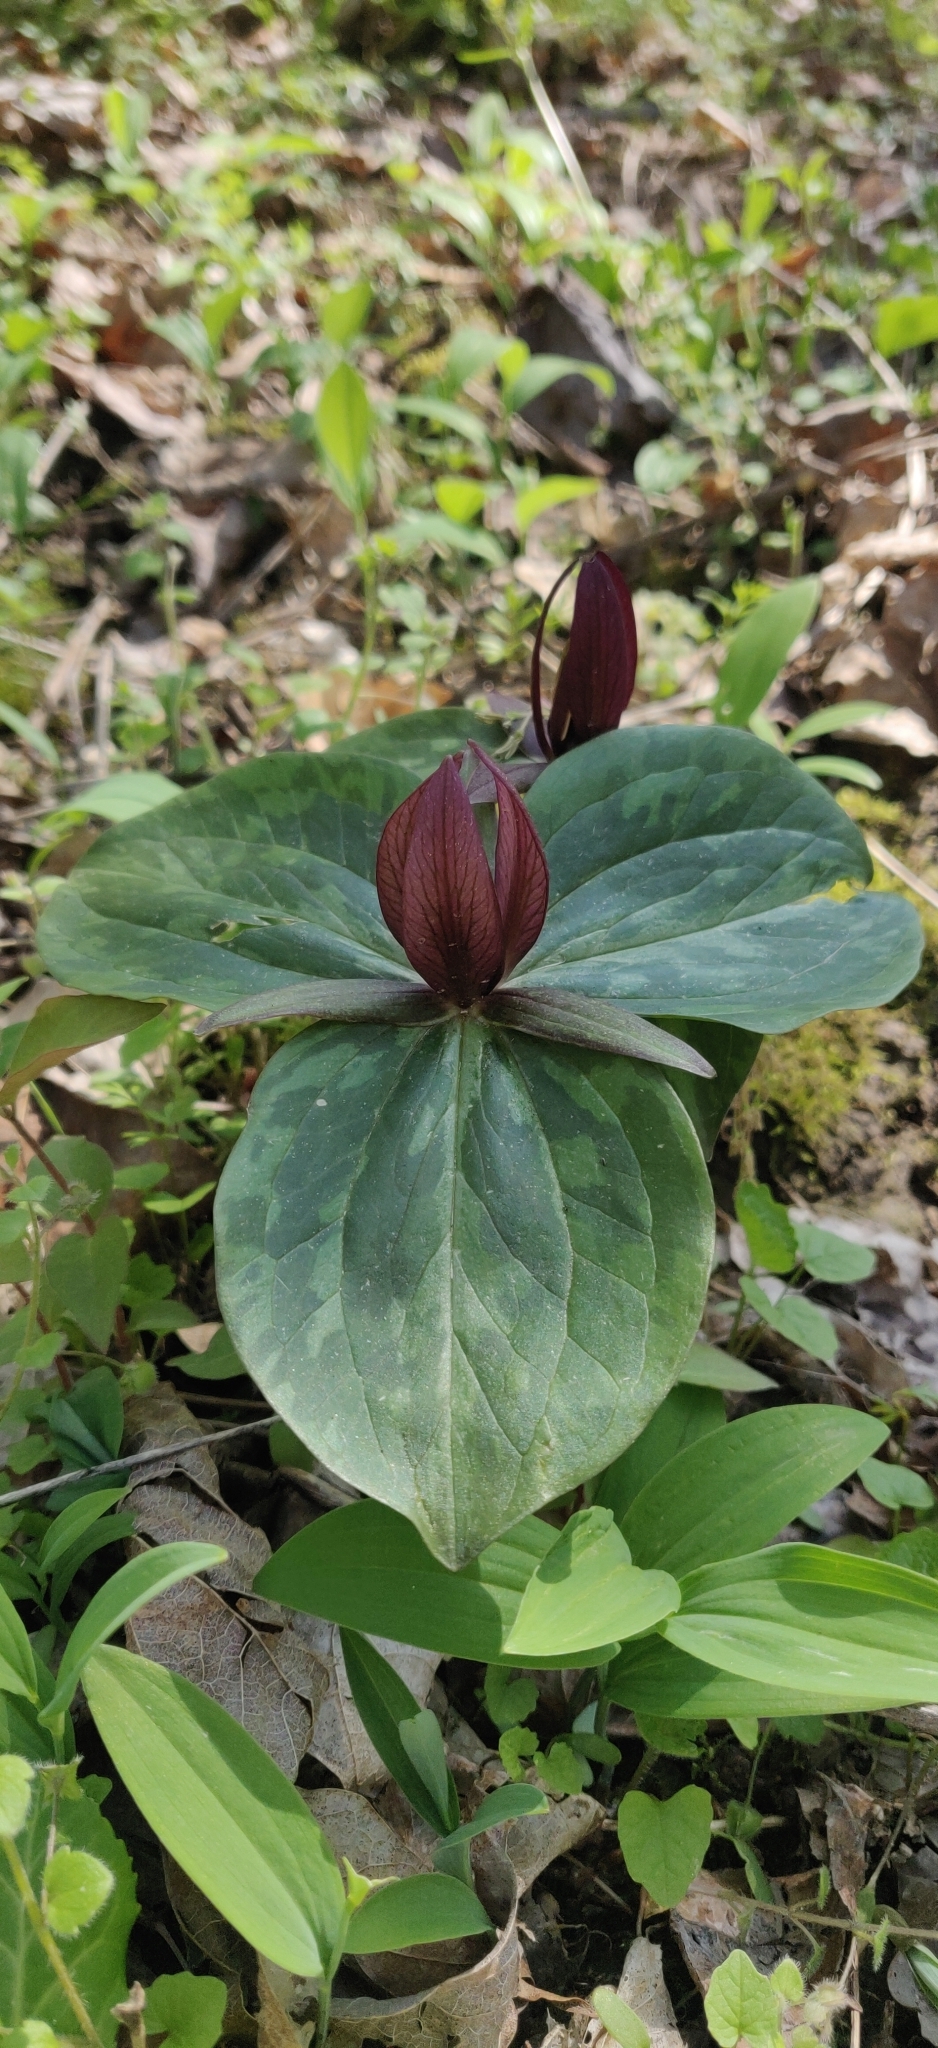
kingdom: Plantae
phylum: Tracheophyta
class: Liliopsida
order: Liliales
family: Melanthiaceae
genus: Trillium
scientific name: Trillium sessile
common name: Sessile trillium
